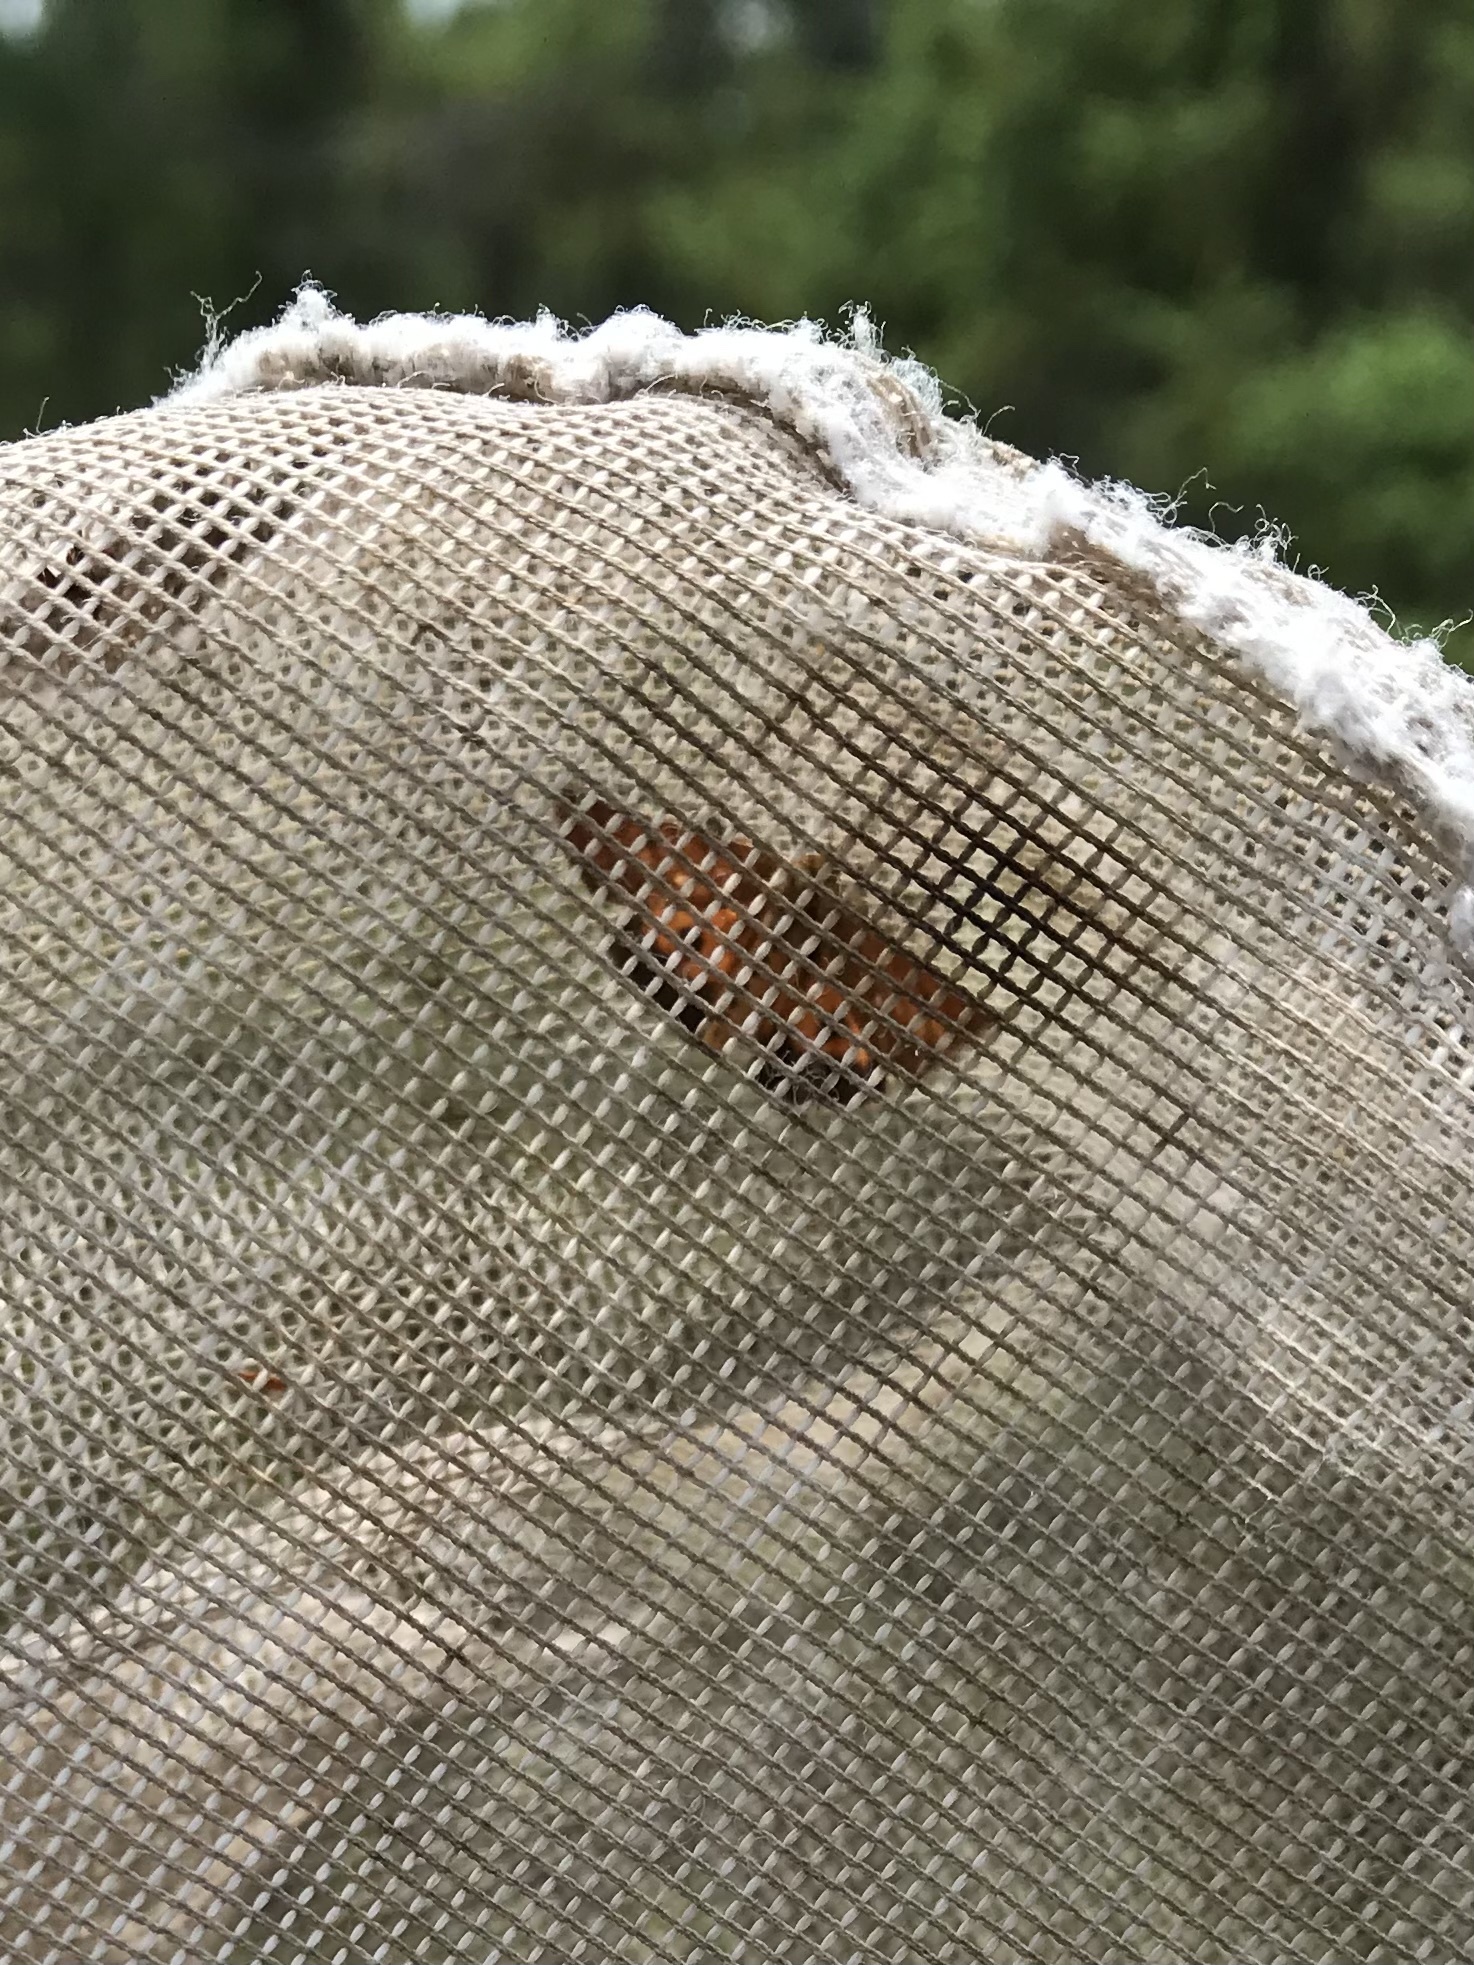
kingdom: Animalia
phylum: Arthropoda
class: Insecta
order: Lepidoptera
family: Erebidae
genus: Virbia
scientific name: Virbia lamae
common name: Bog virbia moth
